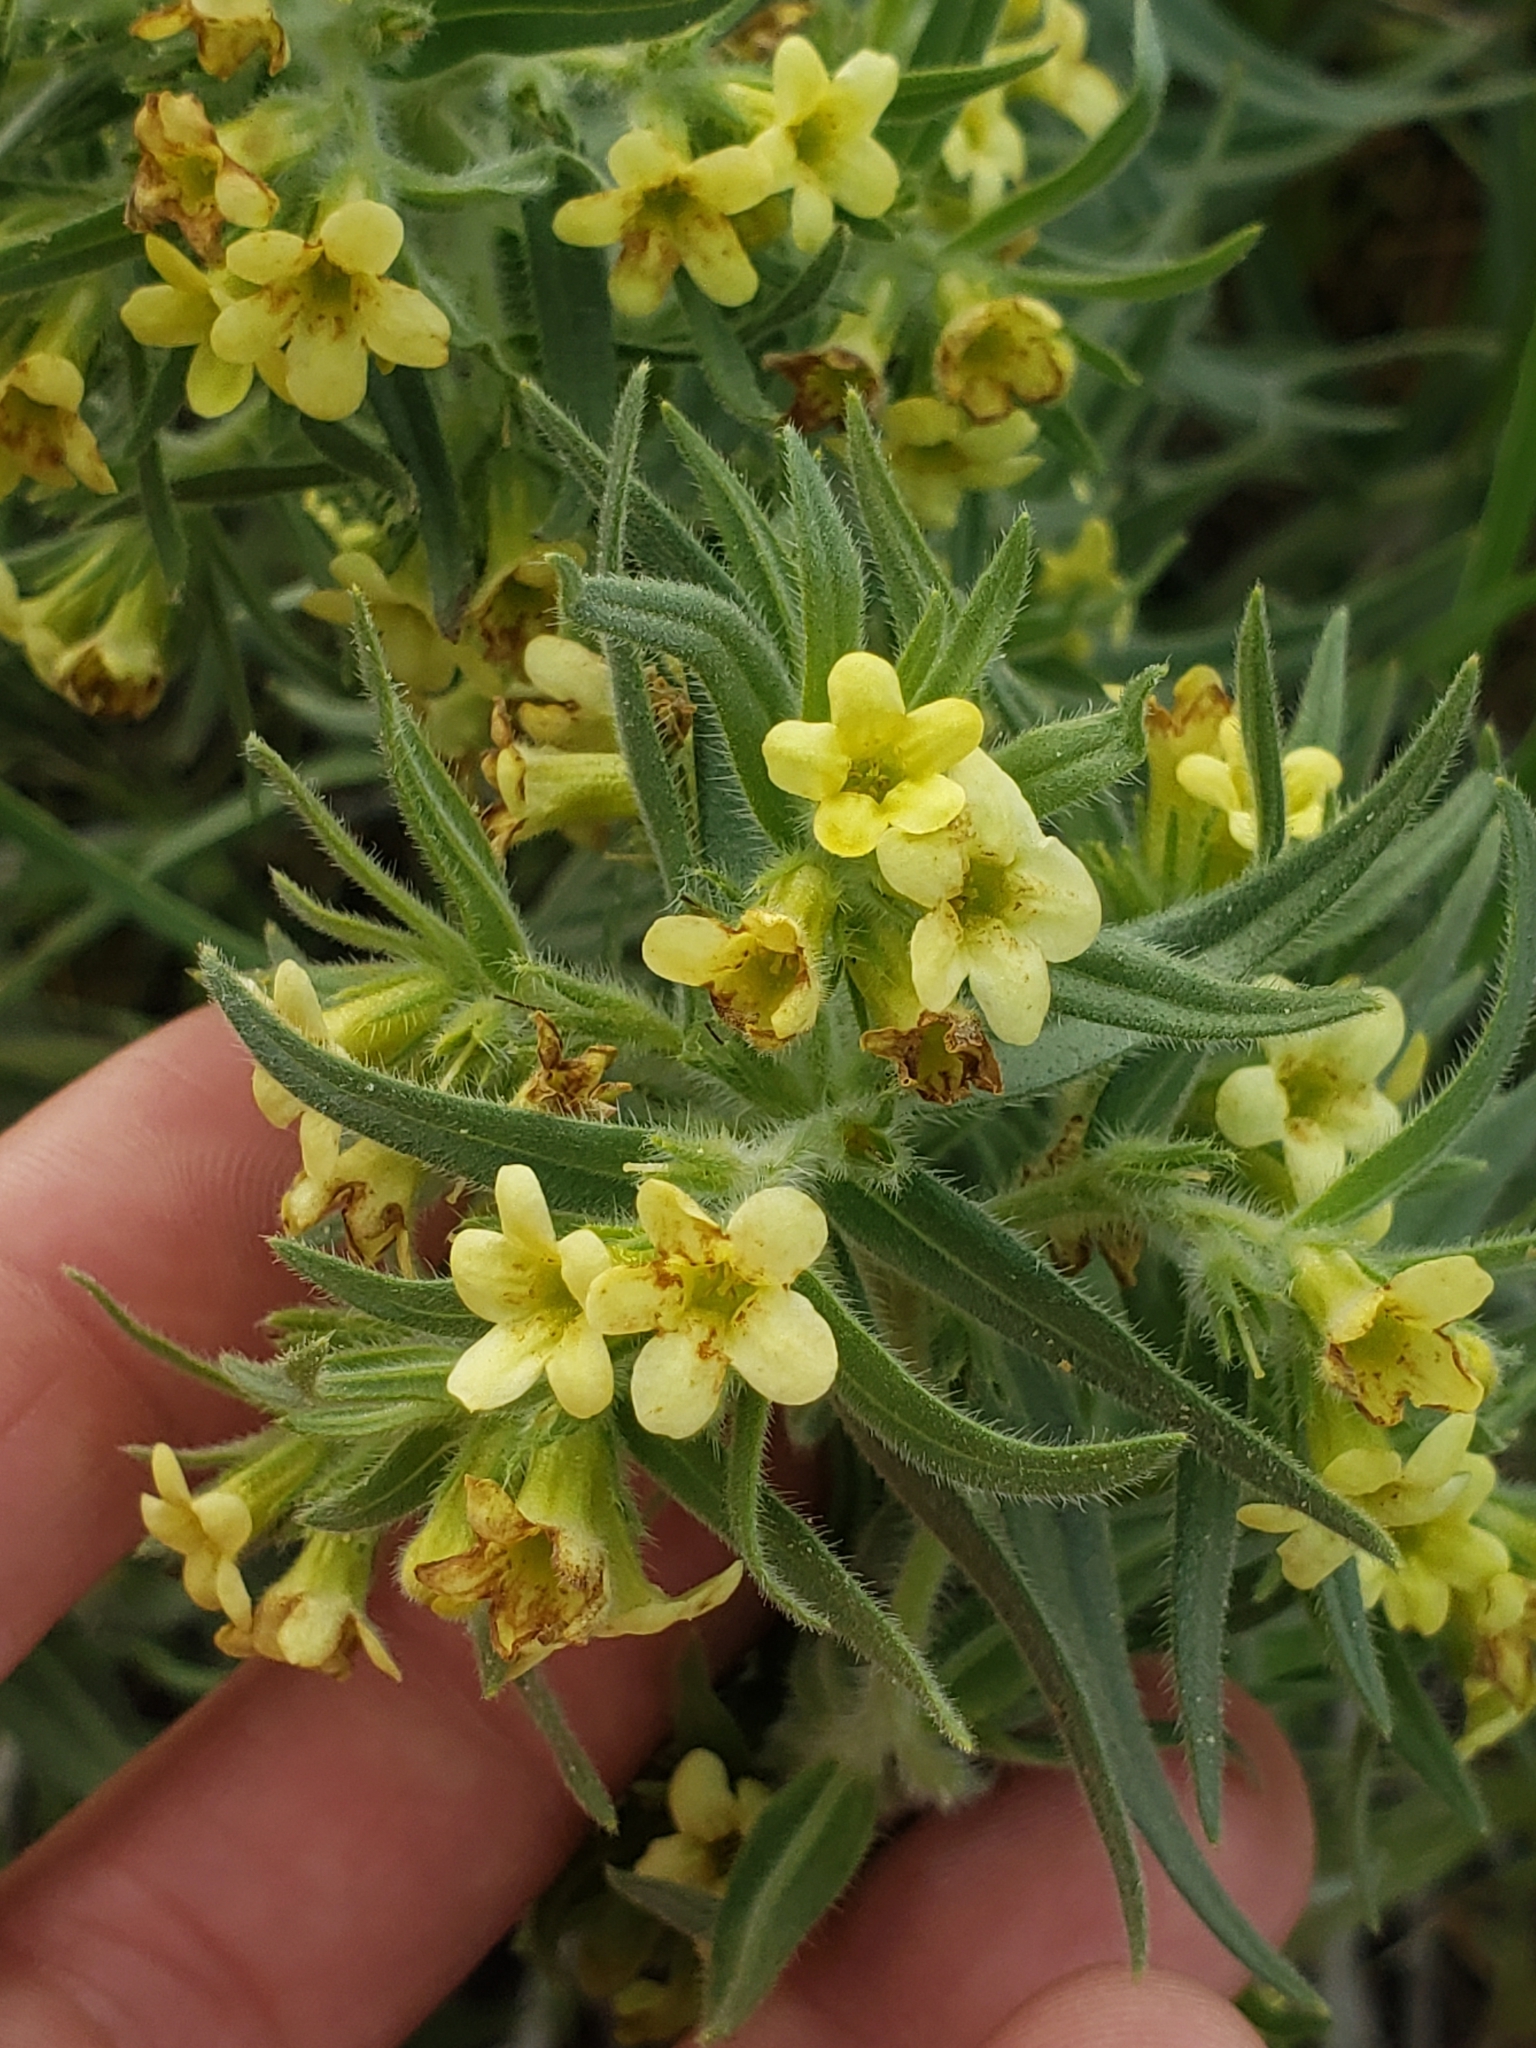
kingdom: Plantae
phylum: Tracheophyta
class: Magnoliopsida
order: Boraginales
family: Boraginaceae
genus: Lithospermum
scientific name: Lithospermum ruderale
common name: Western gromwell
